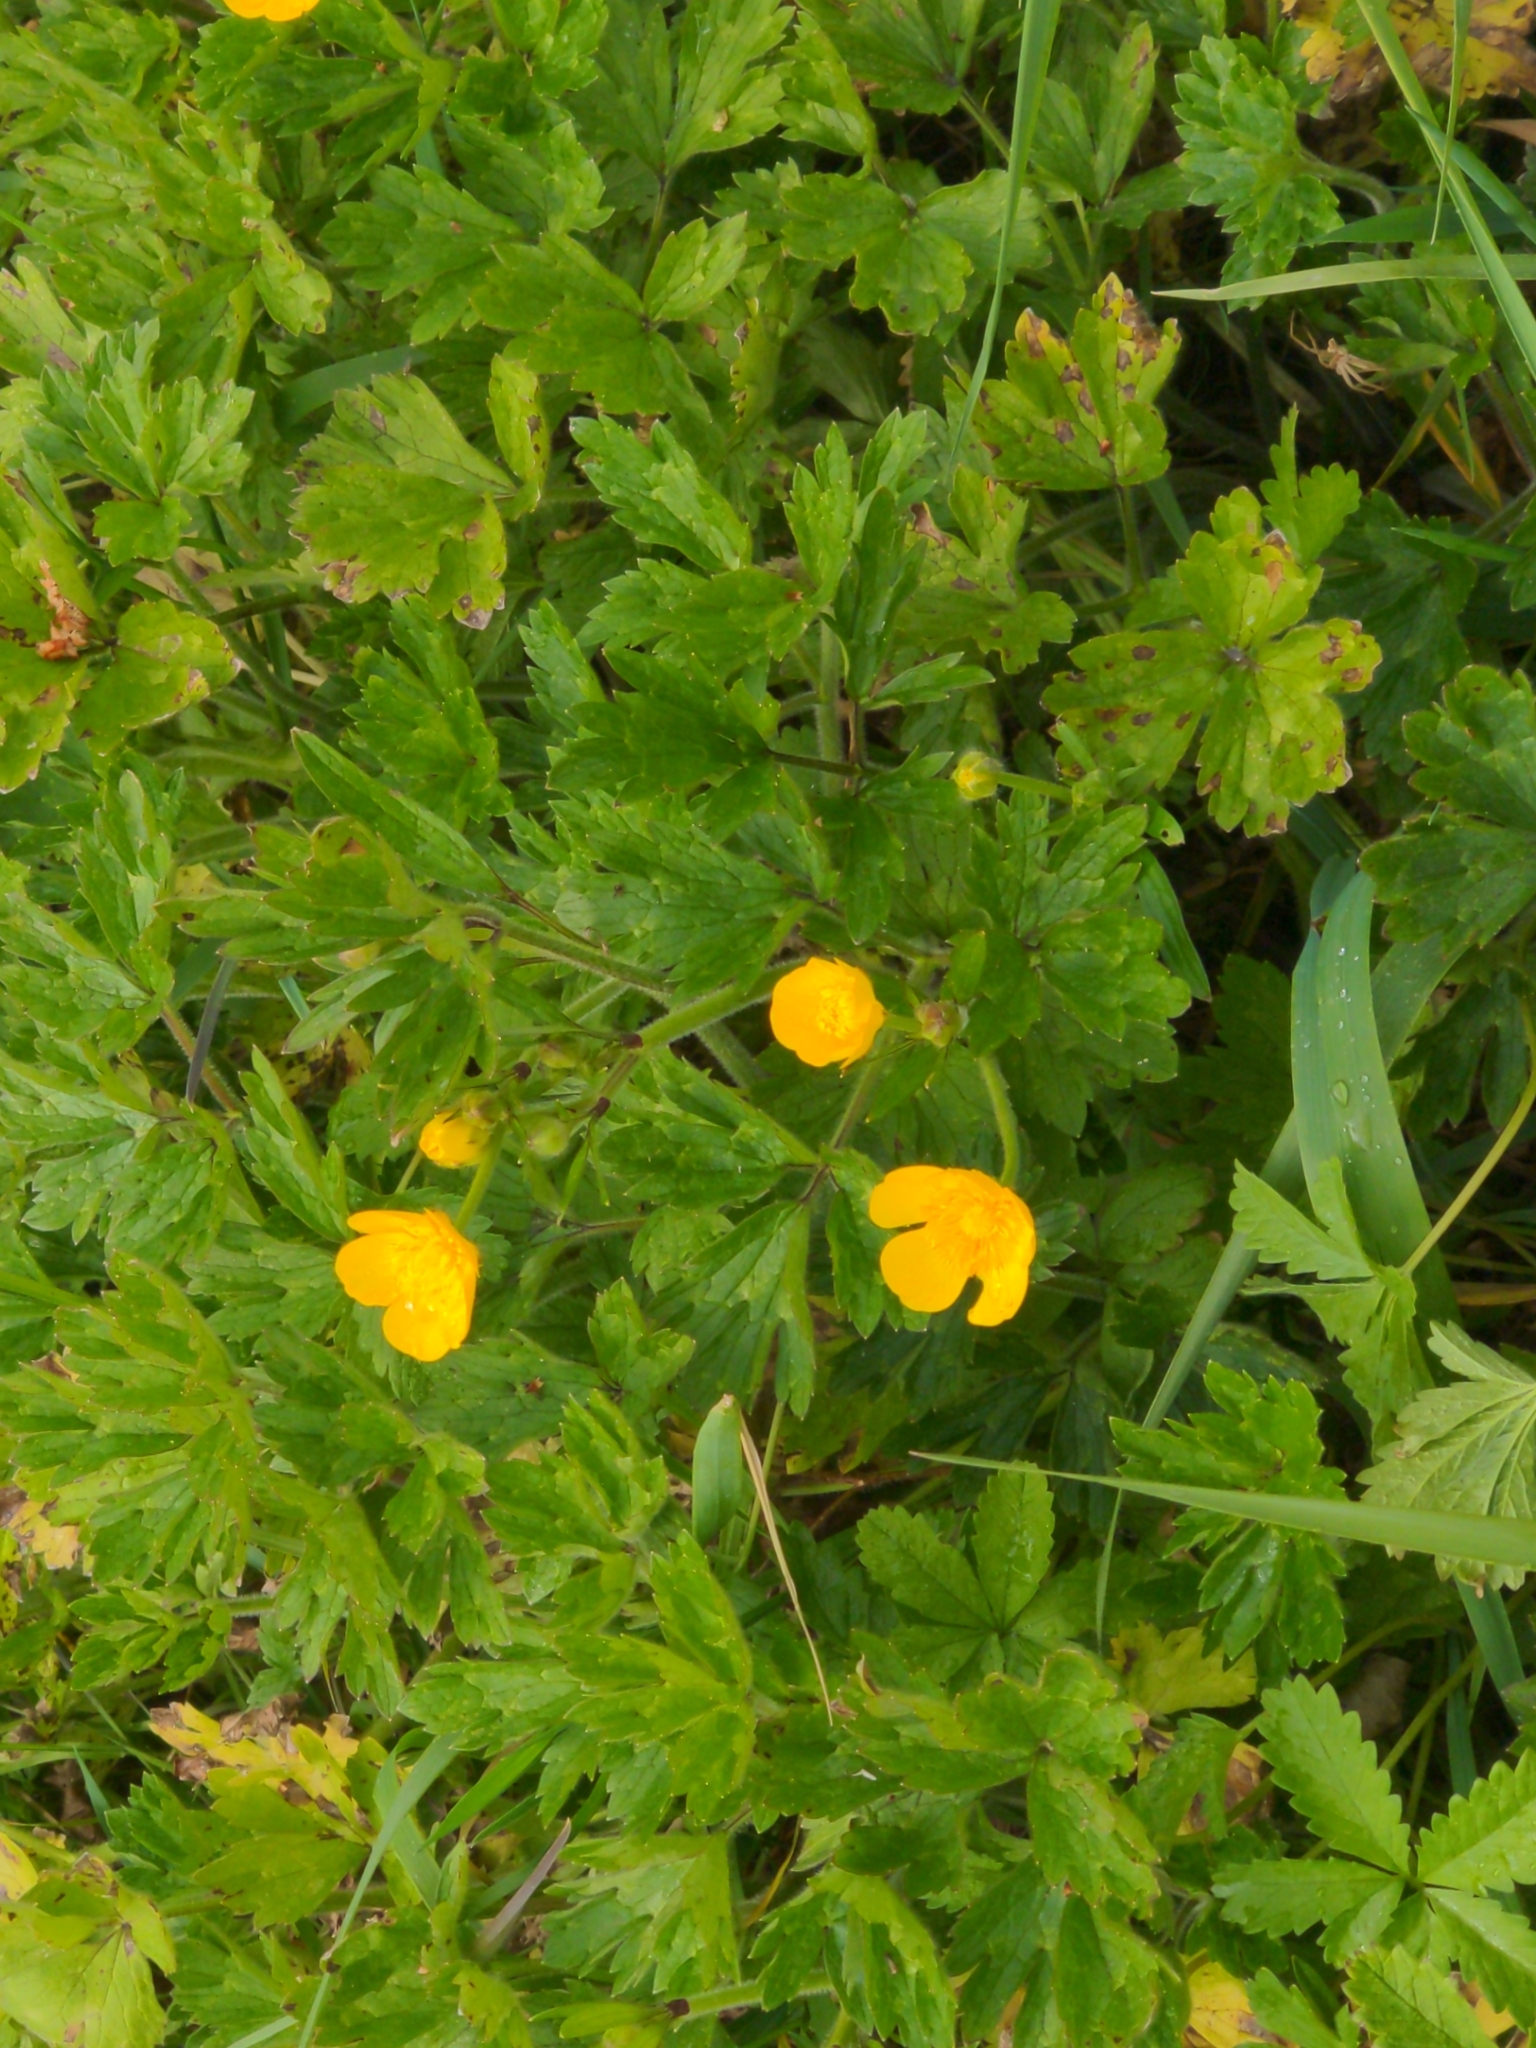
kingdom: Plantae
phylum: Tracheophyta
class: Magnoliopsida
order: Ranunculales
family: Ranunculaceae
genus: Ranunculus
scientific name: Ranunculus repens
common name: Creeping buttercup
